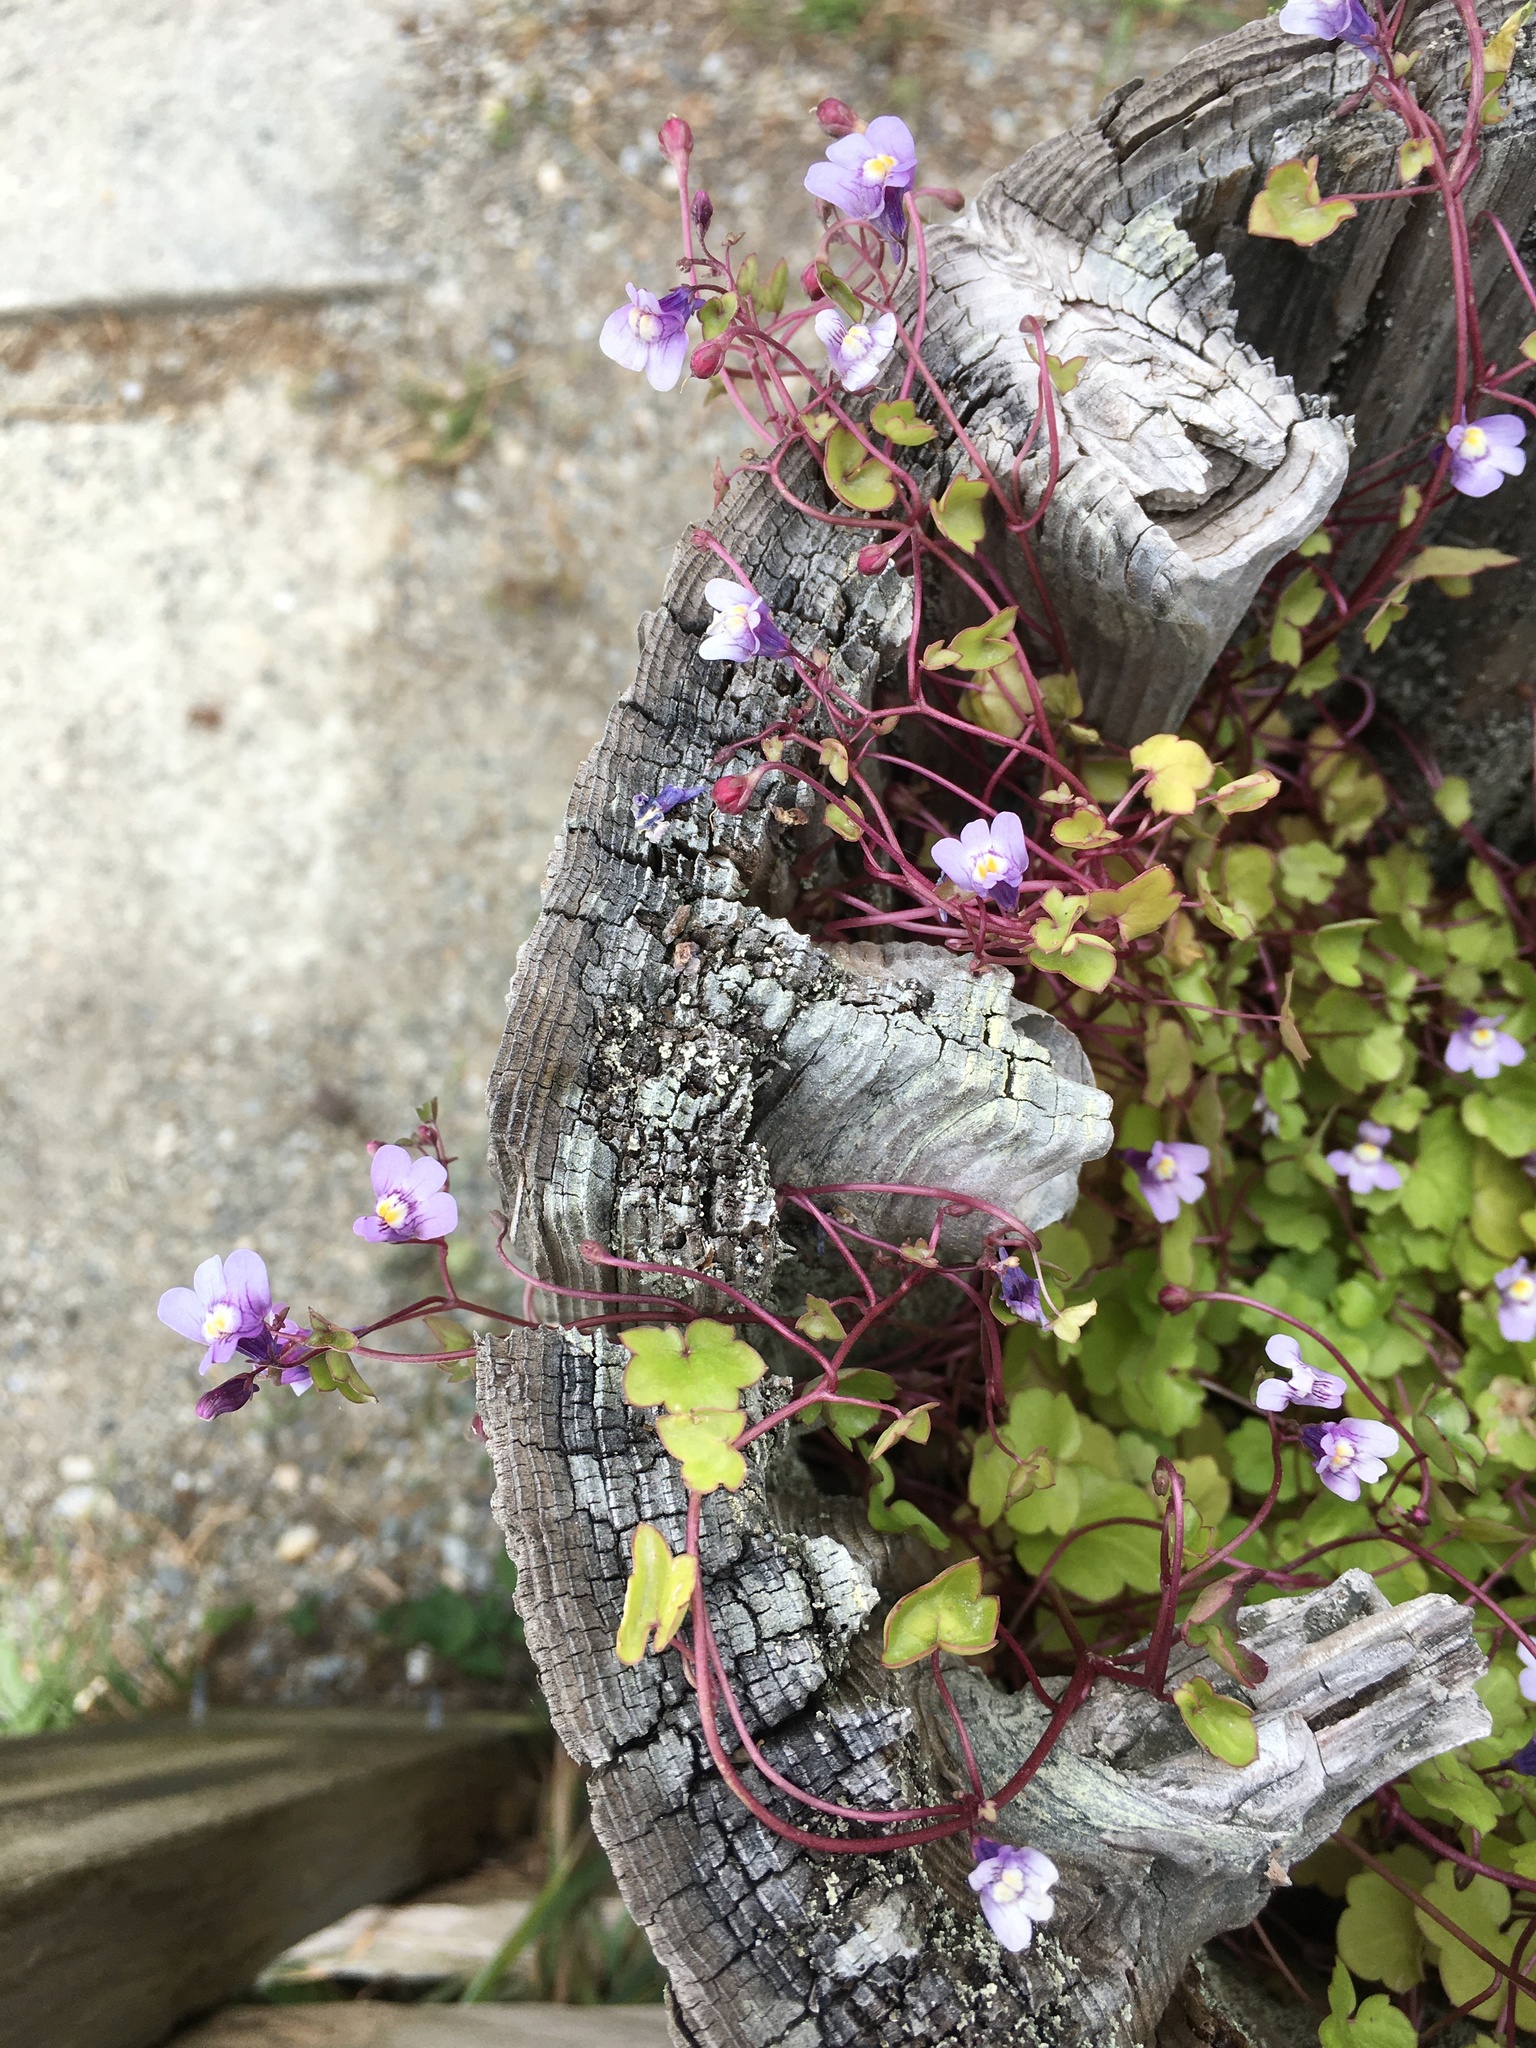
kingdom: Plantae
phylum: Tracheophyta
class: Magnoliopsida
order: Lamiales
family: Plantaginaceae
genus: Cymbalaria
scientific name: Cymbalaria muralis
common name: Ivy-leaved toadflax
